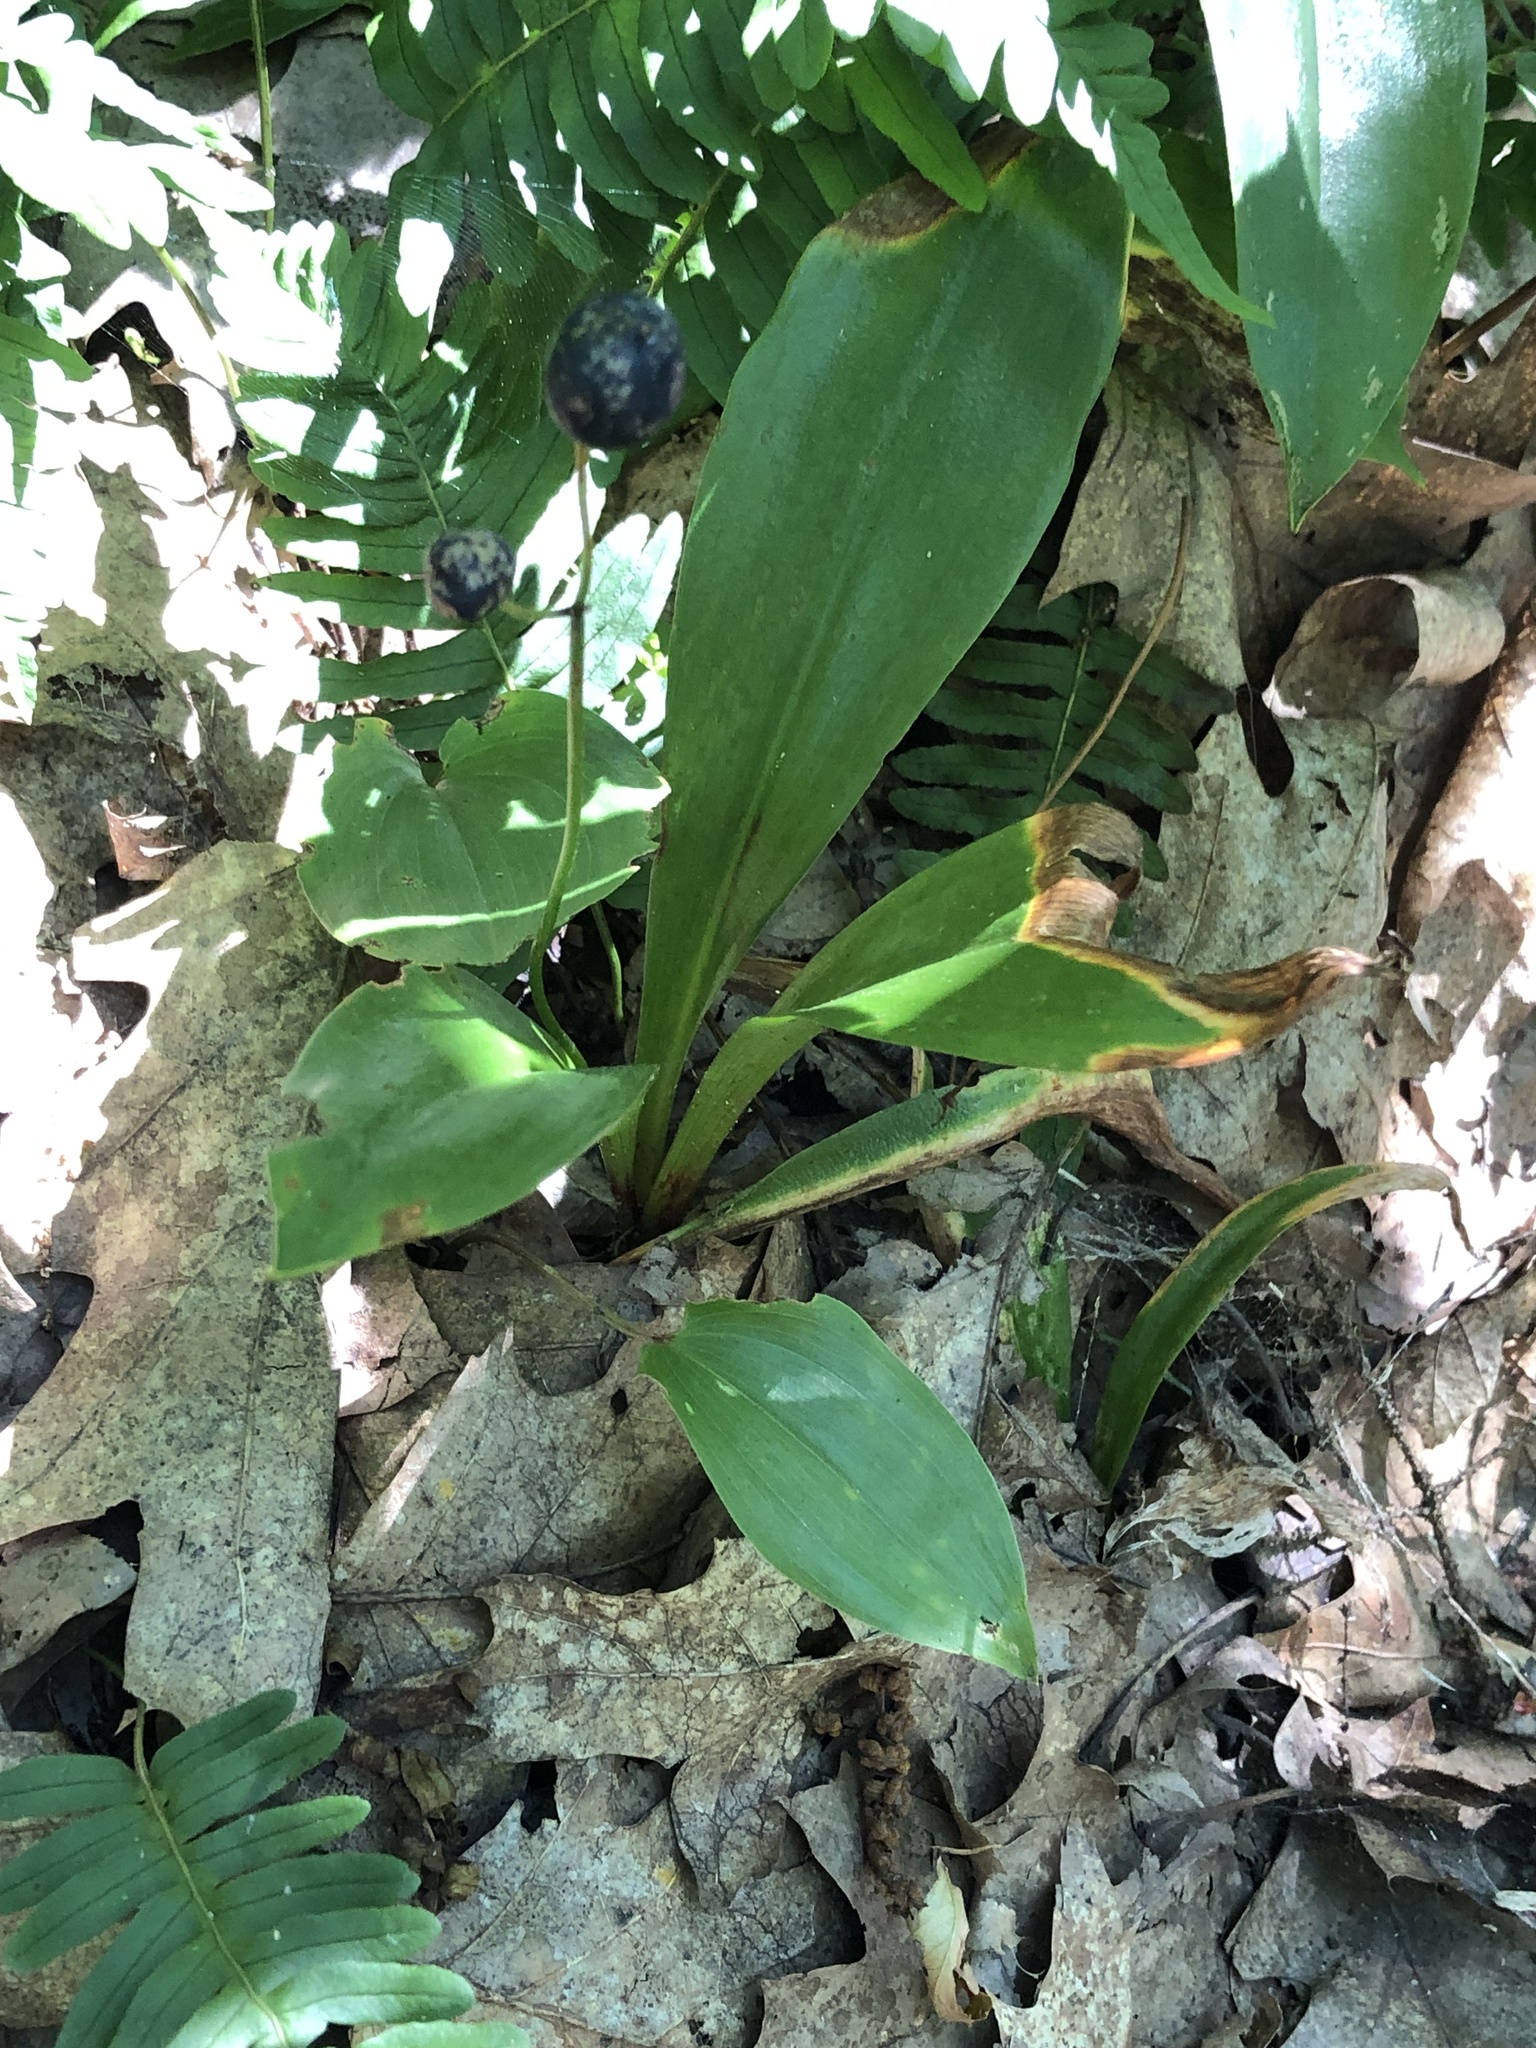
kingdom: Plantae
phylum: Tracheophyta
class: Liliopsida
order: Liliales
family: Liliaceae
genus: Clintonia
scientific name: Clintonia borealis
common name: Yellow clintonia
